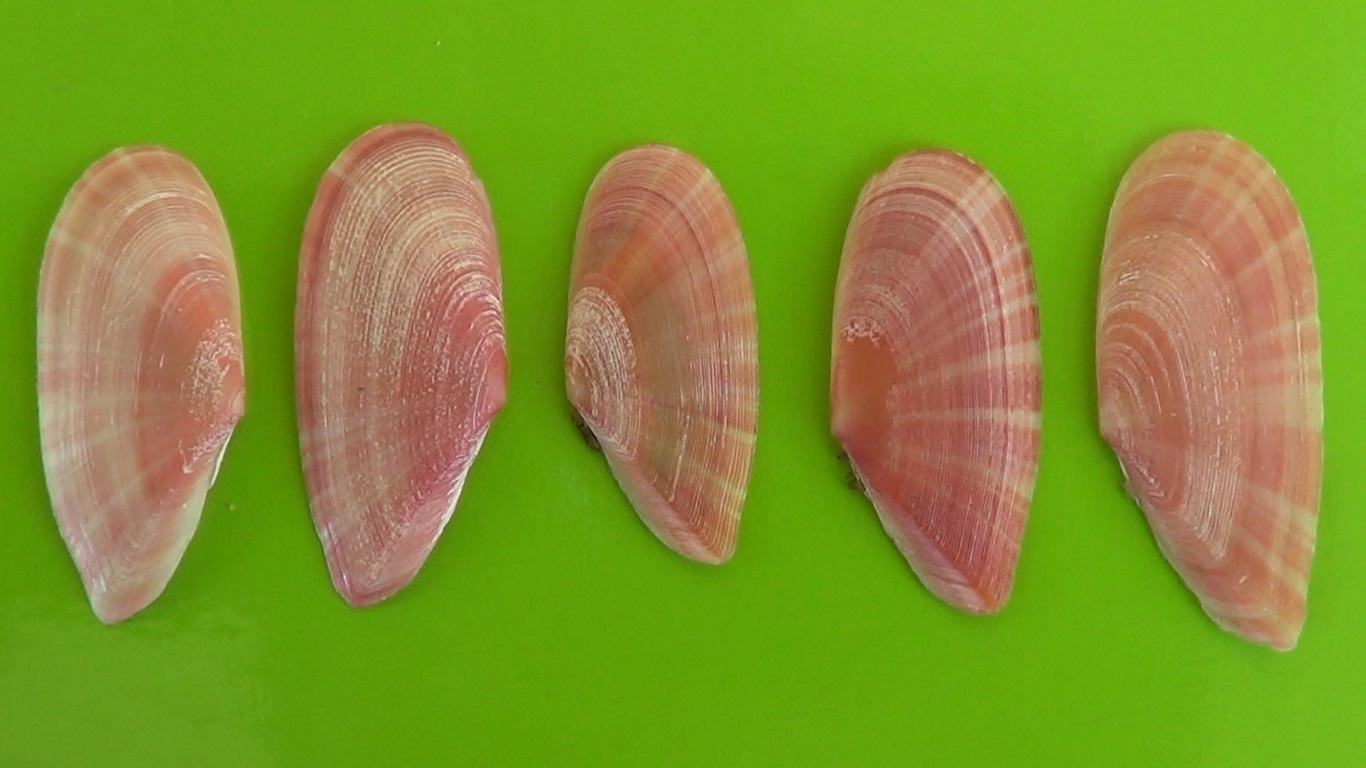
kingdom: Animalia
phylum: Mollusca
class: Bivalvia
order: Cardiida
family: Tellinidae
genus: Moerella
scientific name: Moerella pulchella
